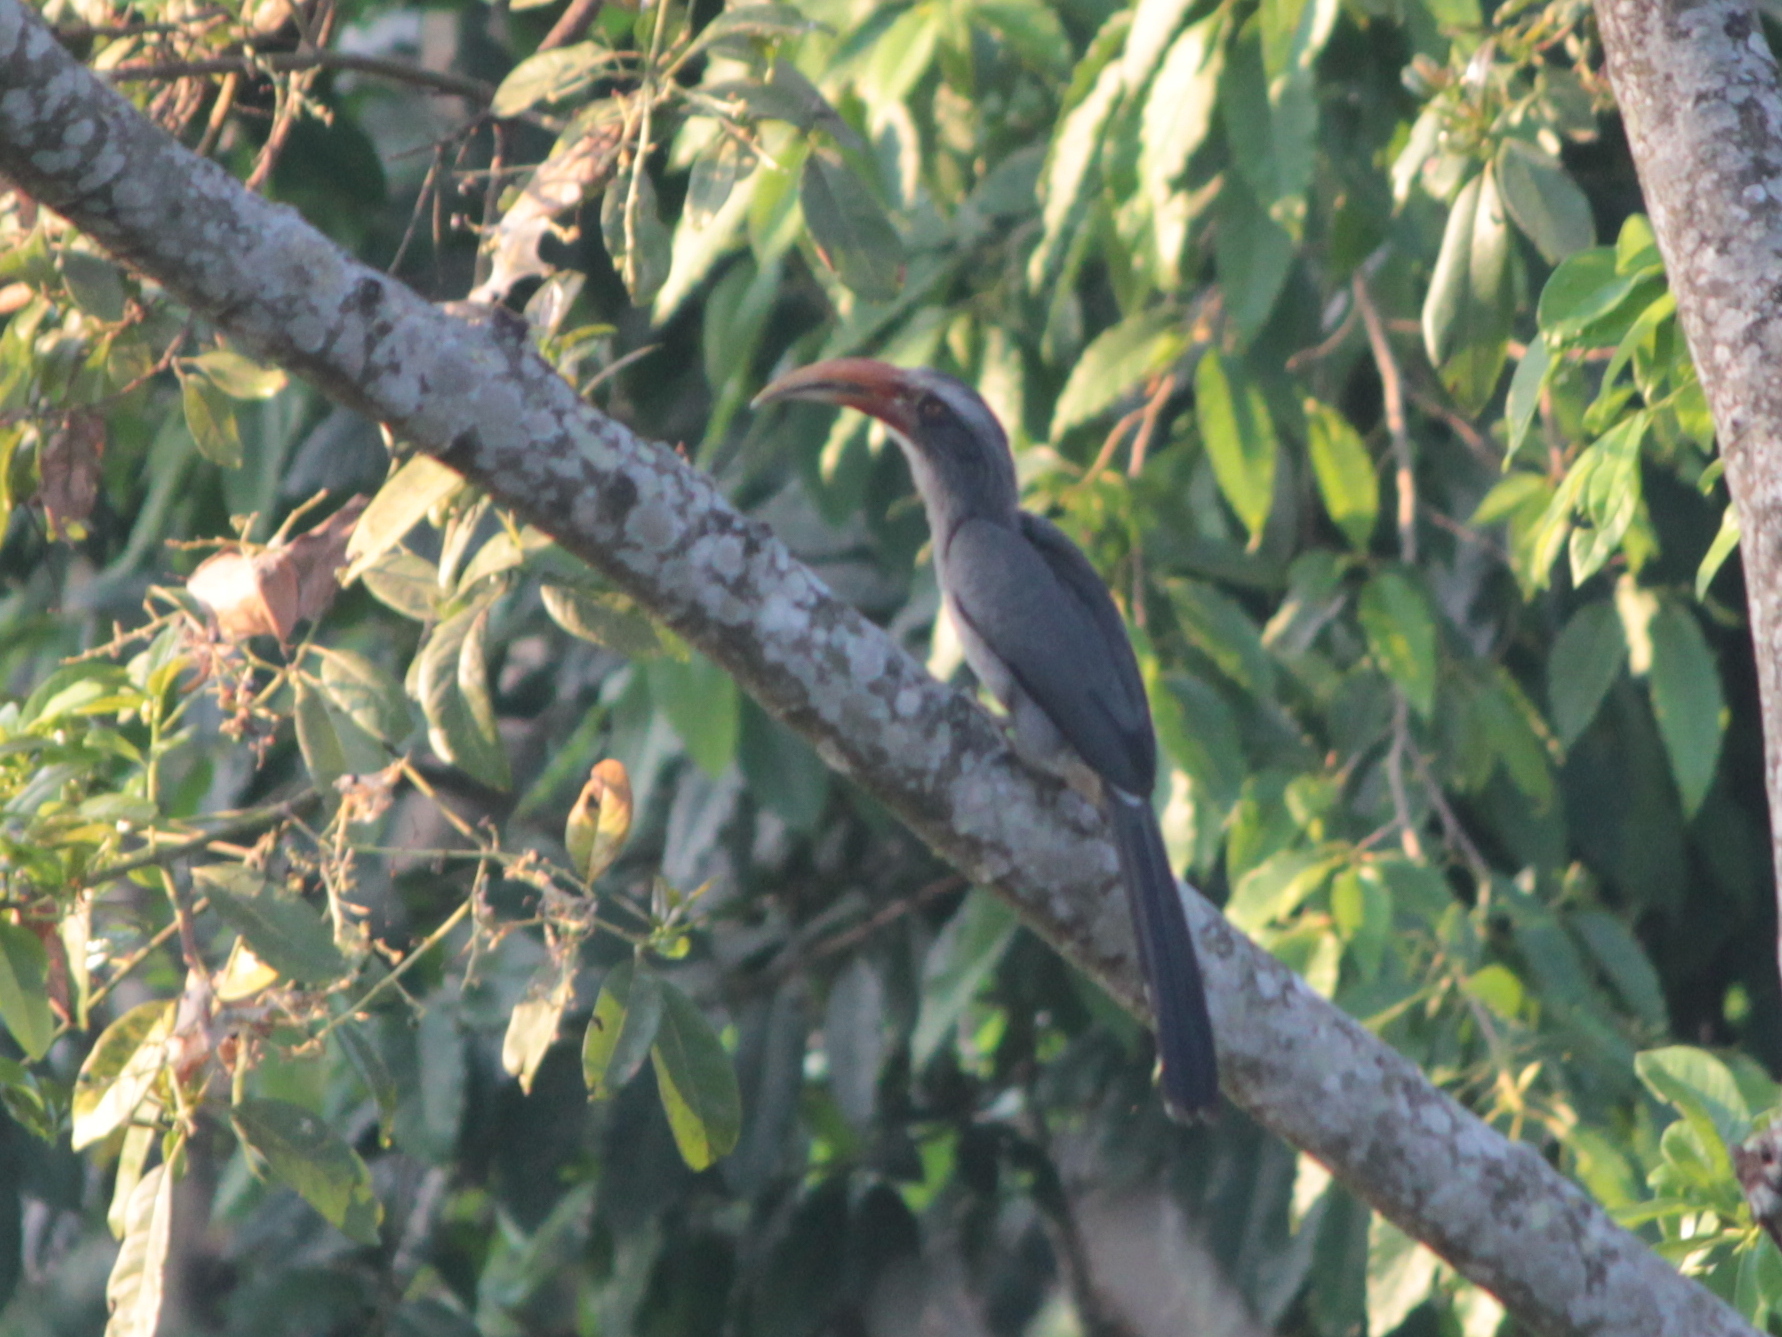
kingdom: Animalia
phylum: Chordata
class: Aves
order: Bucerotiformes
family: Bucerotidae
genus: Ocyceros
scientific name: Ocyceros griseus
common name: Malabar grey hornbill
